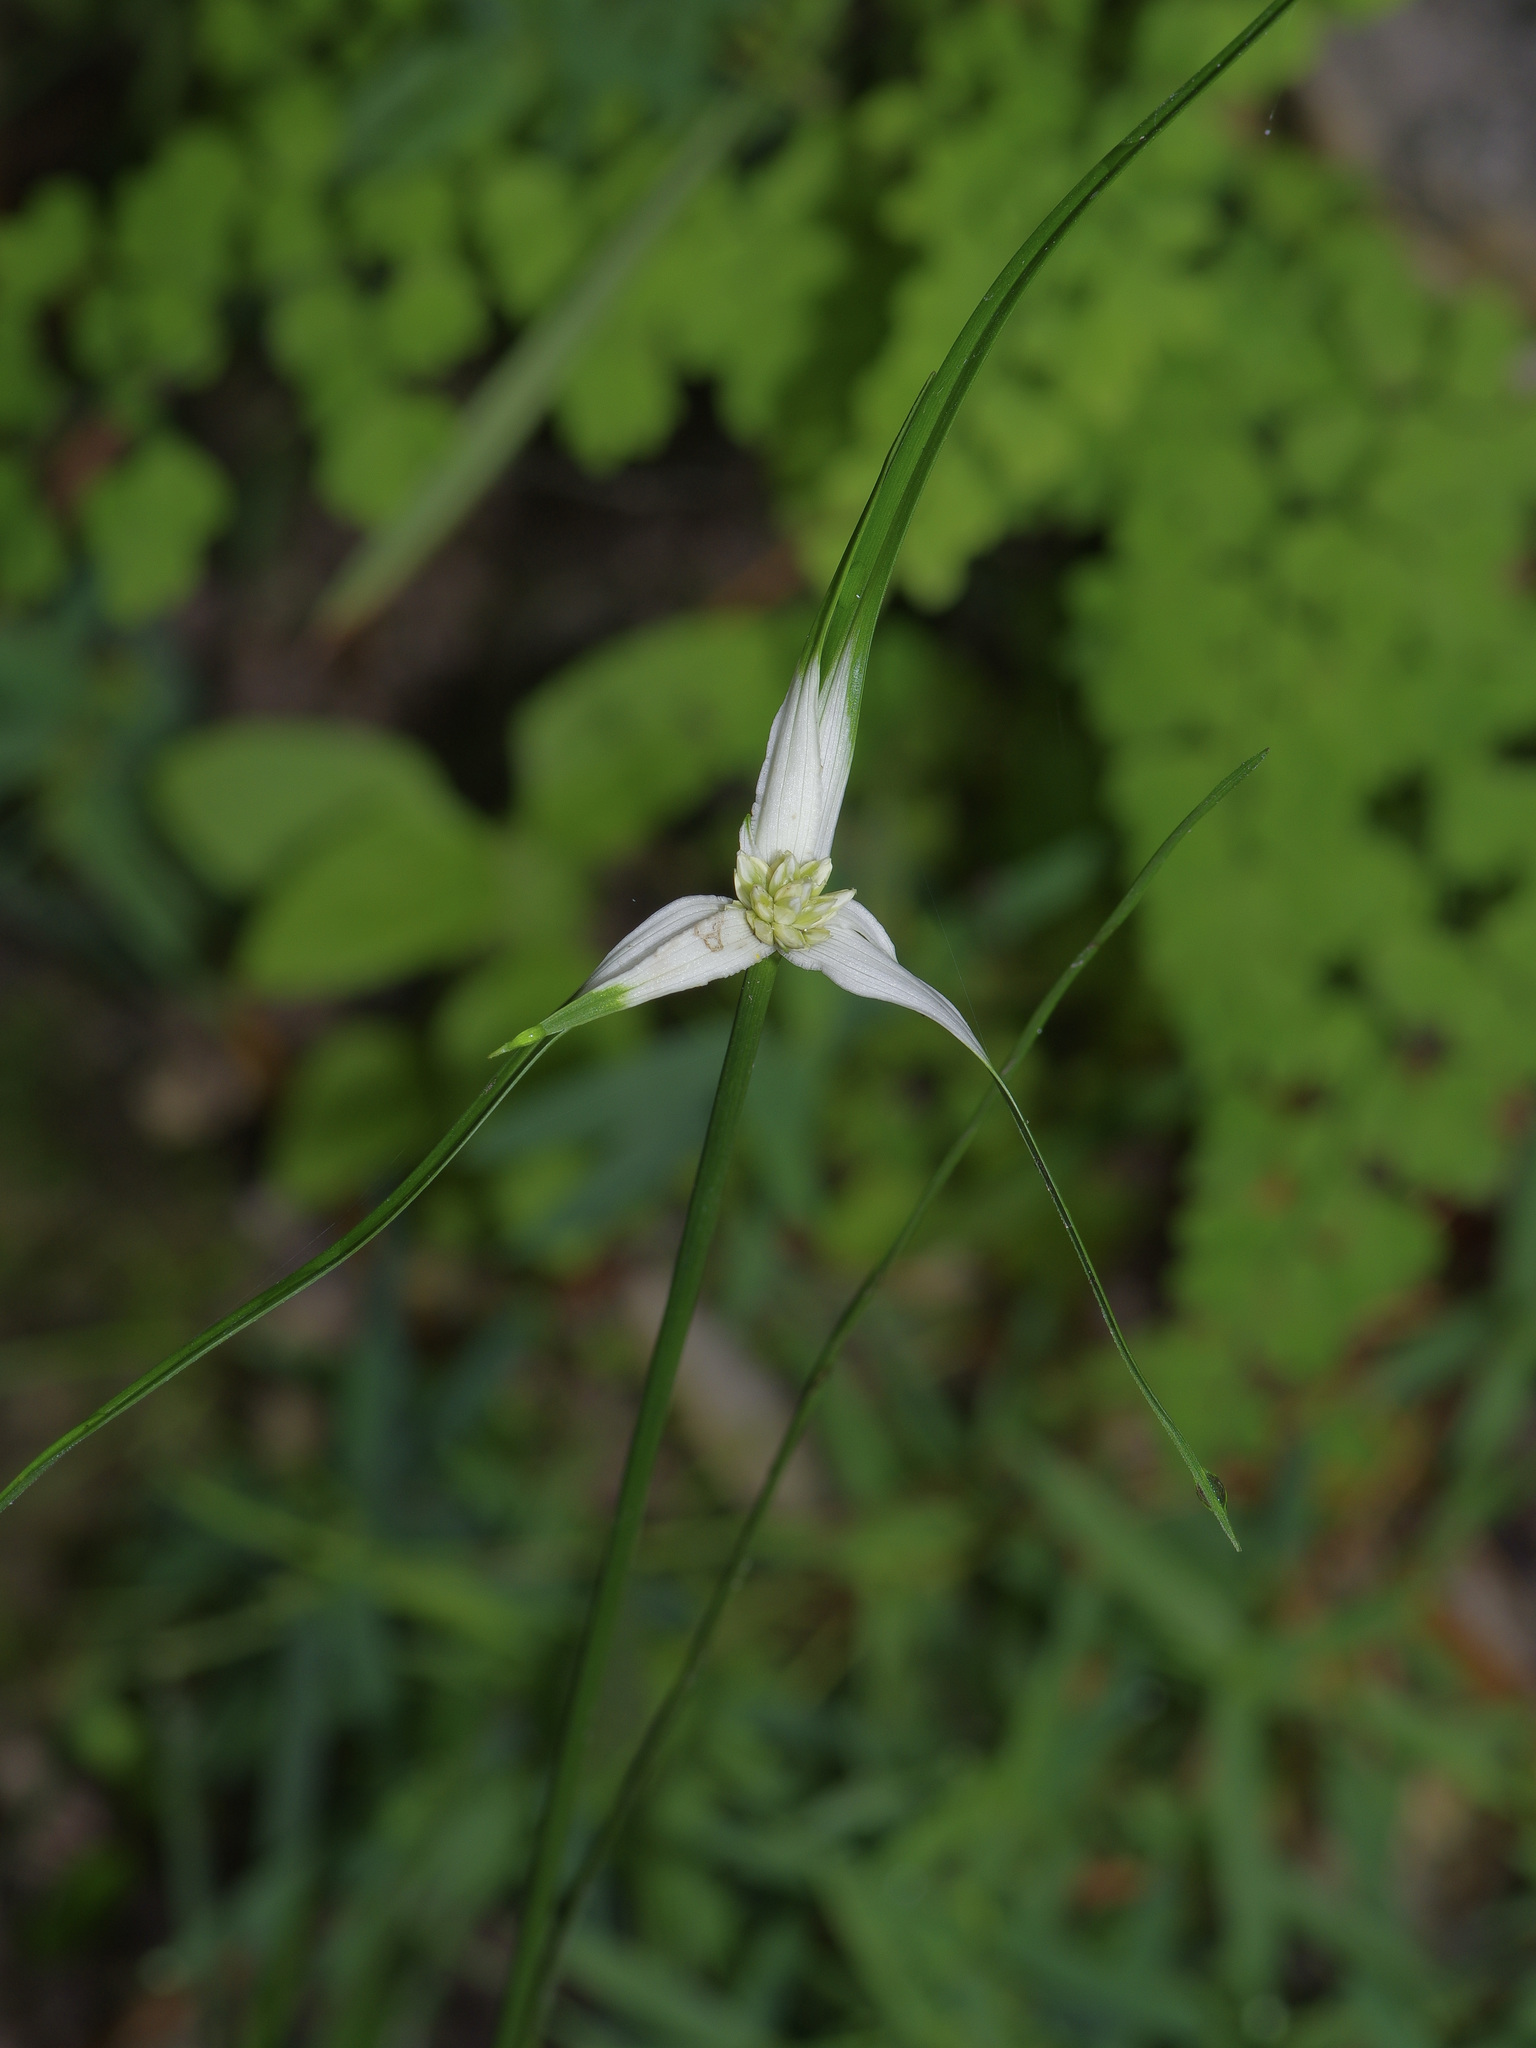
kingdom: Plantae
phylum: Tracheophyta
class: Liliopsida
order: Poales
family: Cyperaceae
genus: Rhynchospora
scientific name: Rhynchospora colorata
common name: Star sedge
